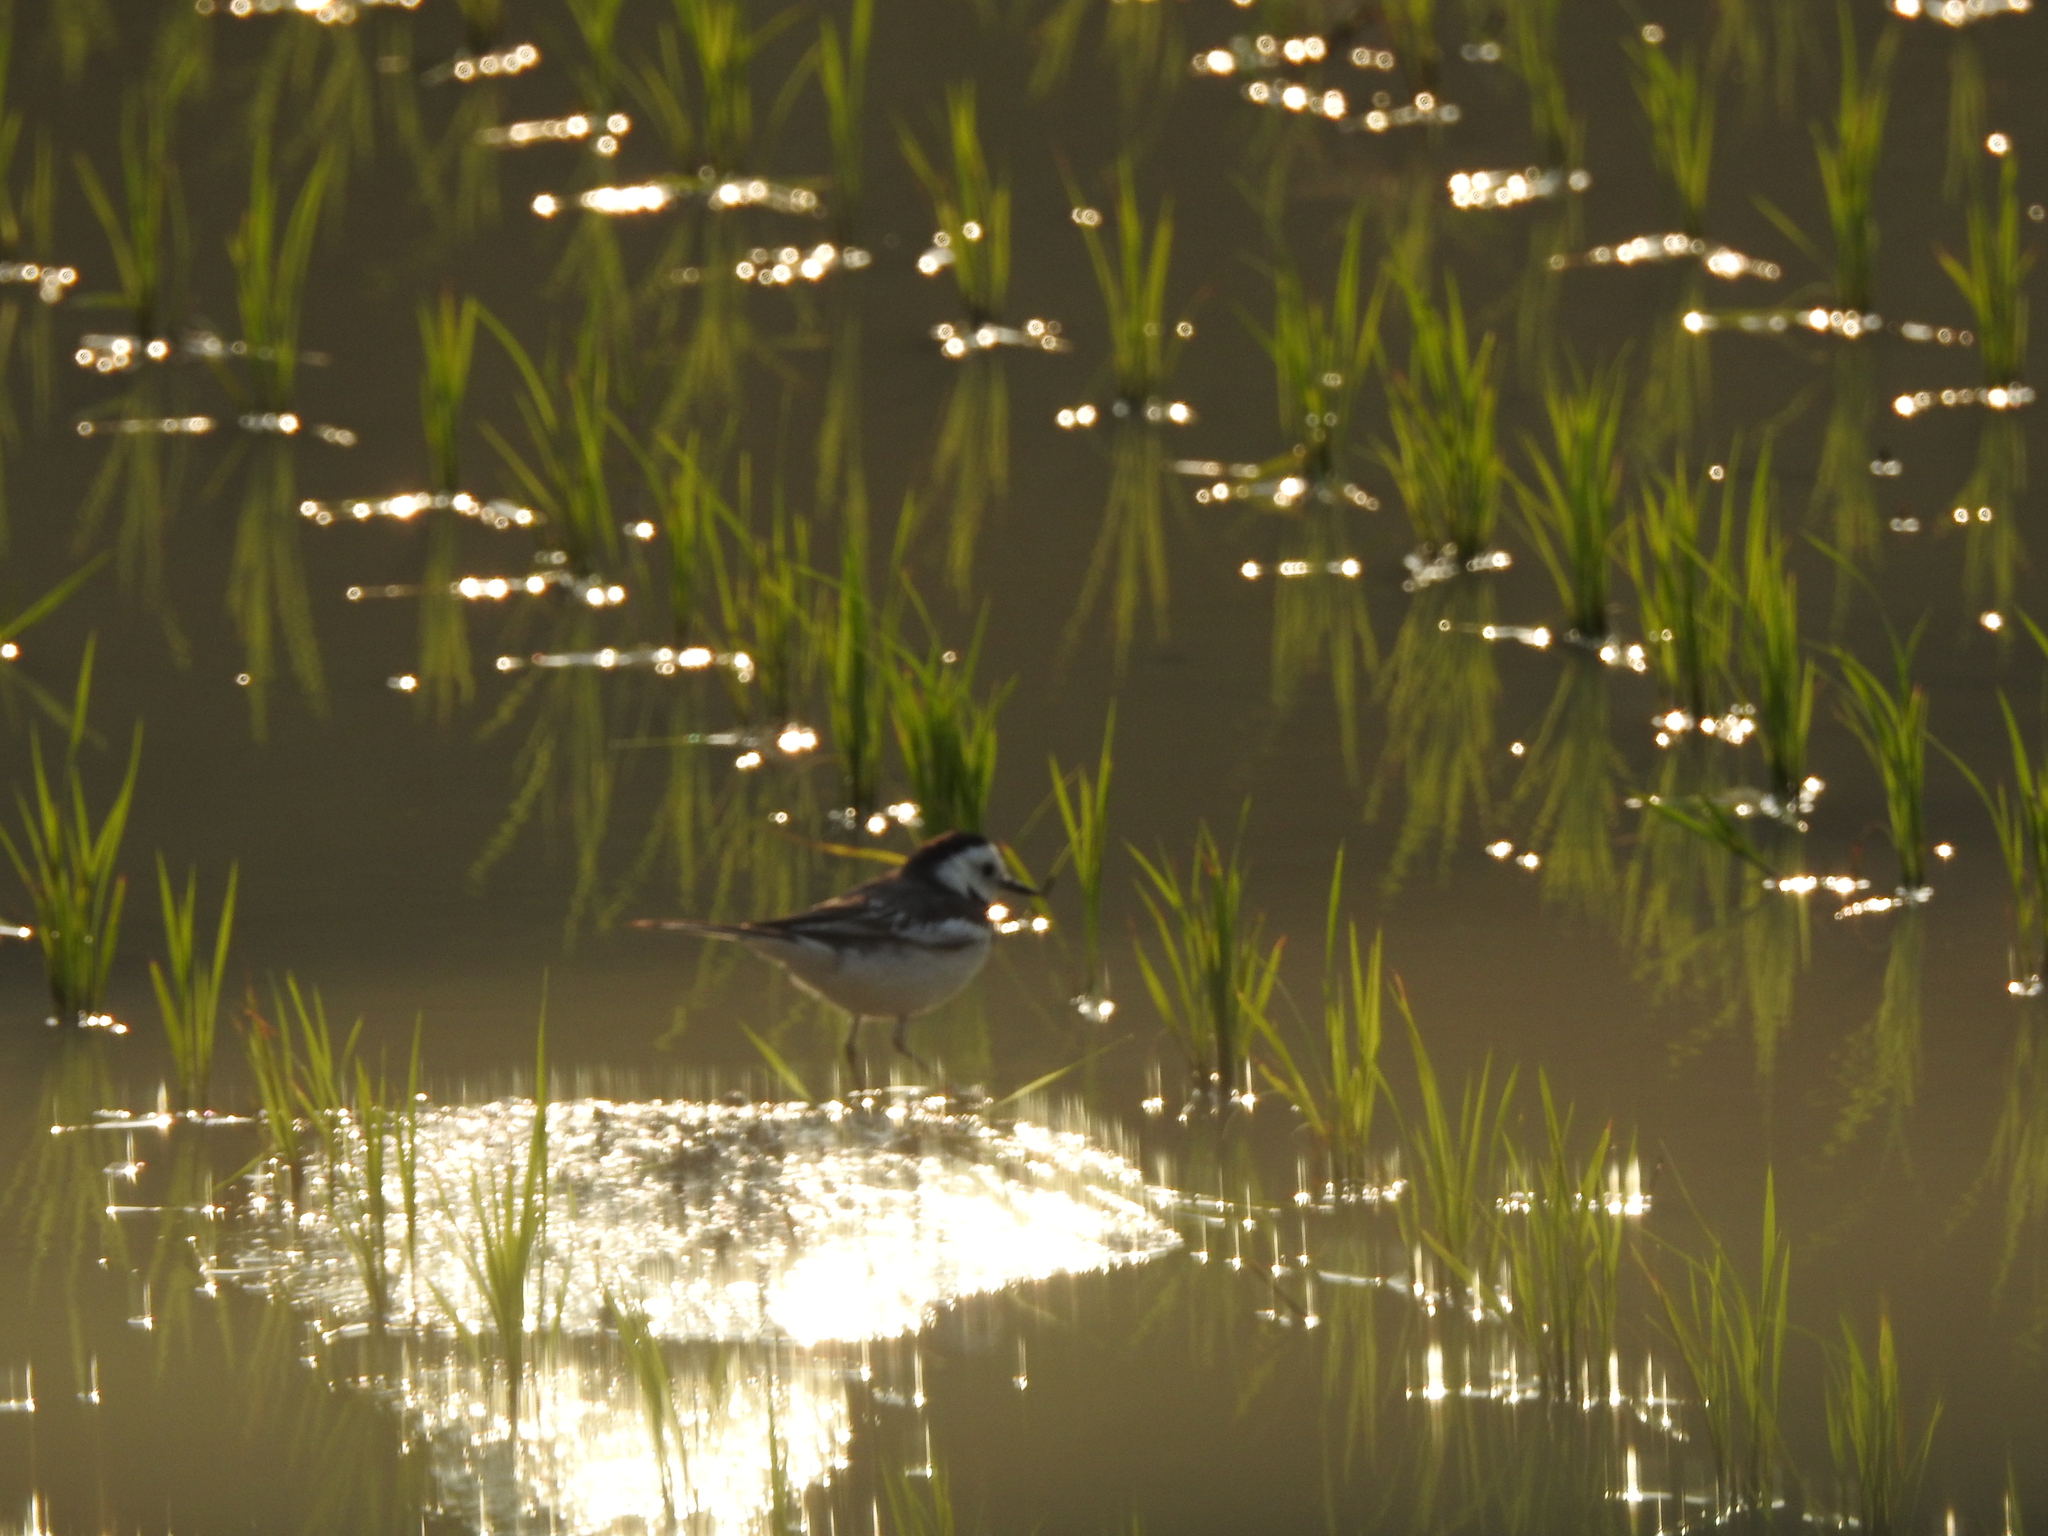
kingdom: Animalia
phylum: Chordata
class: Aves
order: Passeriformes
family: Motacillidae
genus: Motacilla
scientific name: Motacilla alba
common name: White wagtail
